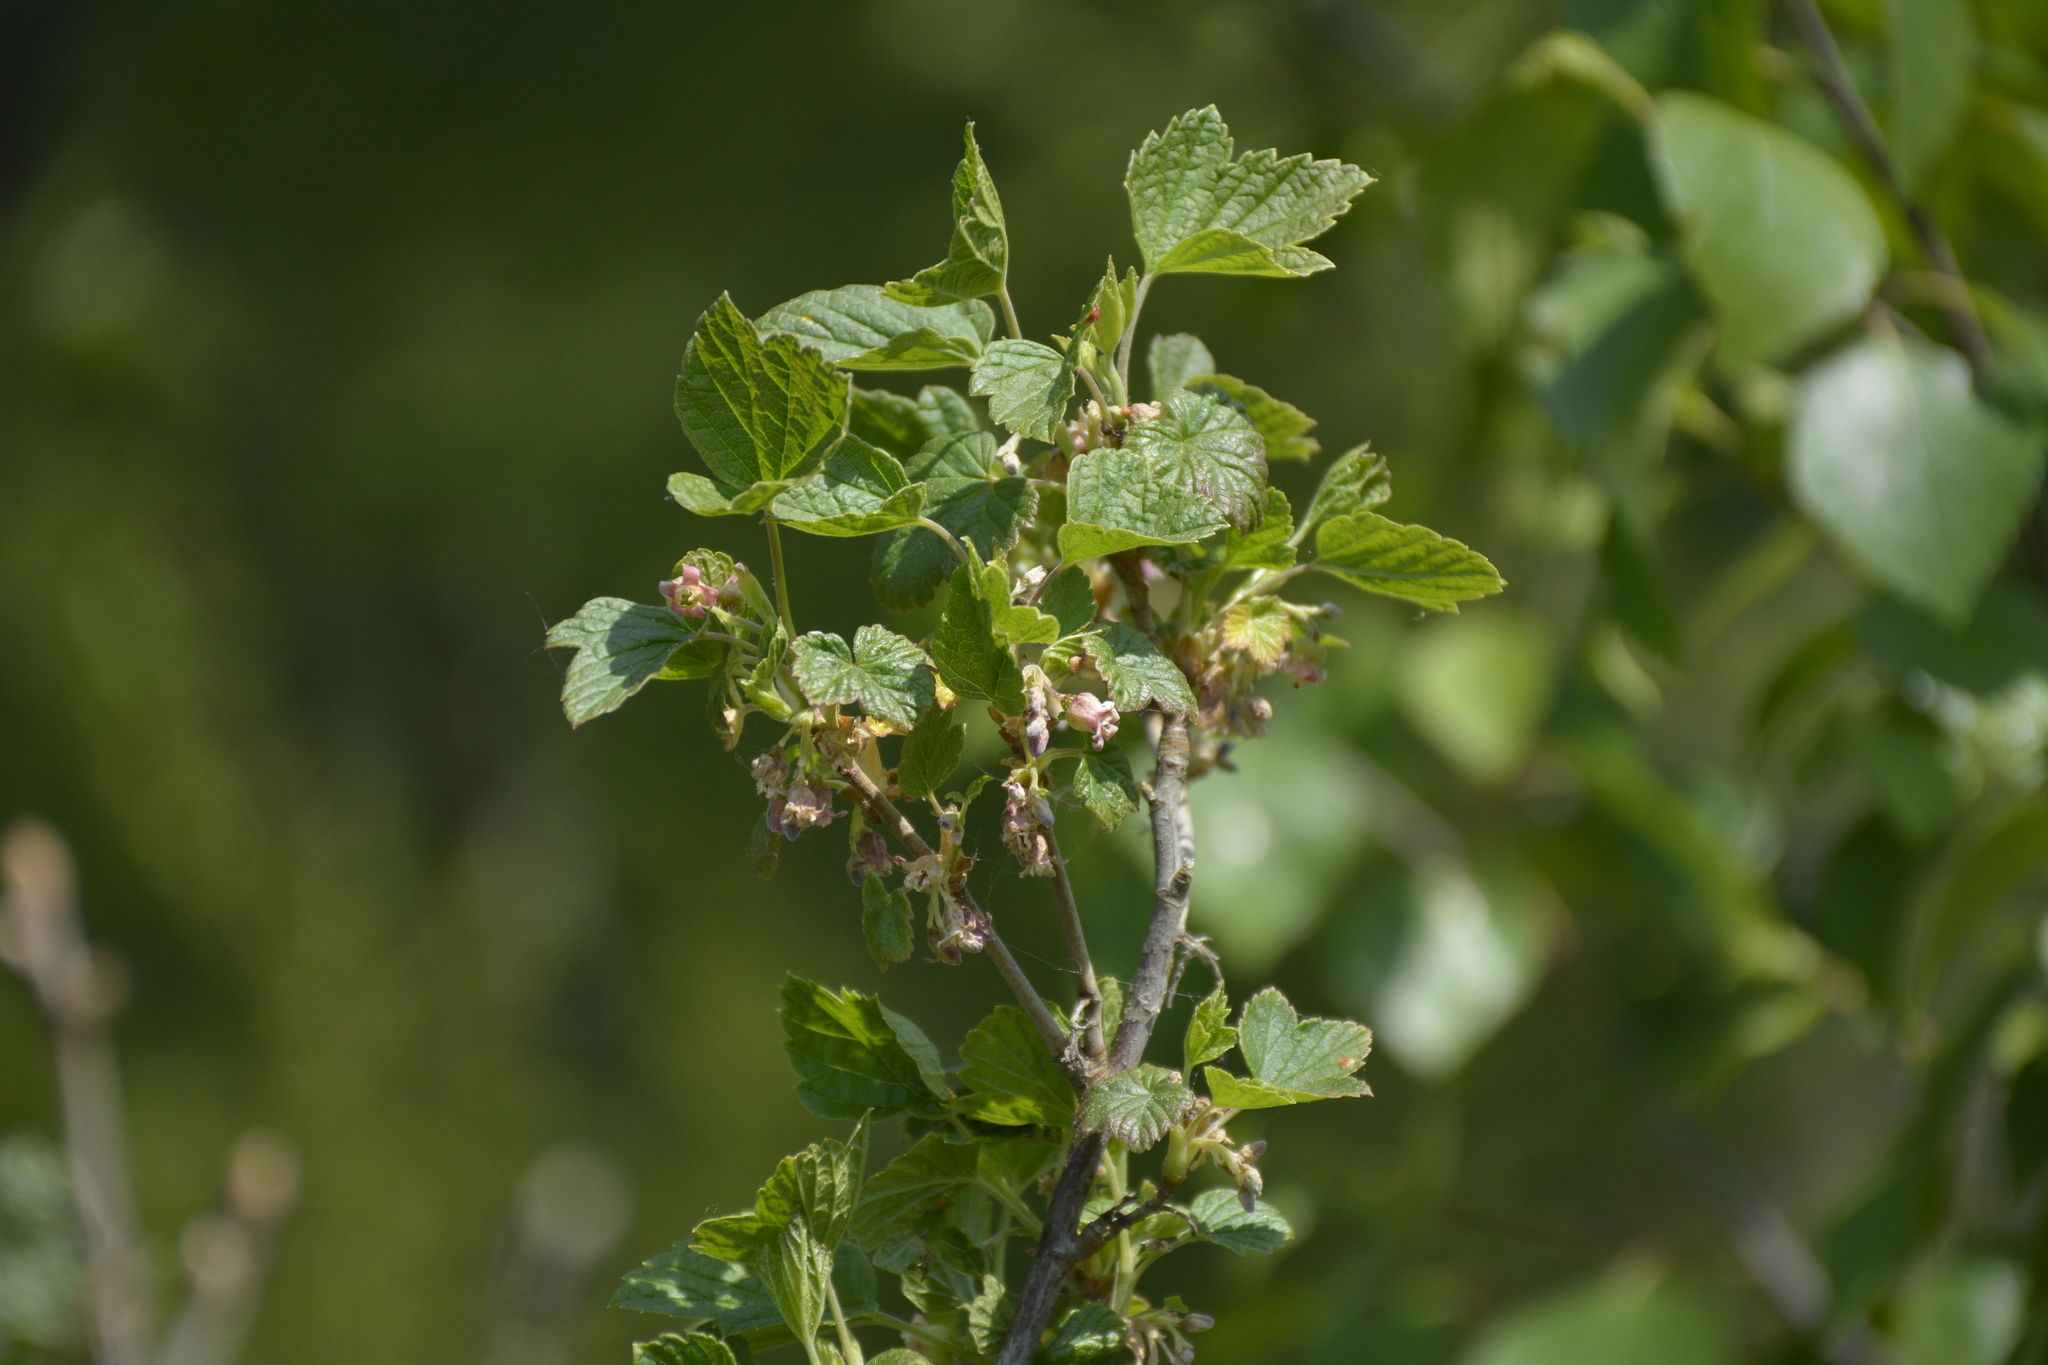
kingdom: Plantae
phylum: Tracheophyta
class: Magnoliopsida
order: Saxifragales
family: Grossulariaceae
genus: Ribes
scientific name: Ribes nigrum
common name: Black currant
